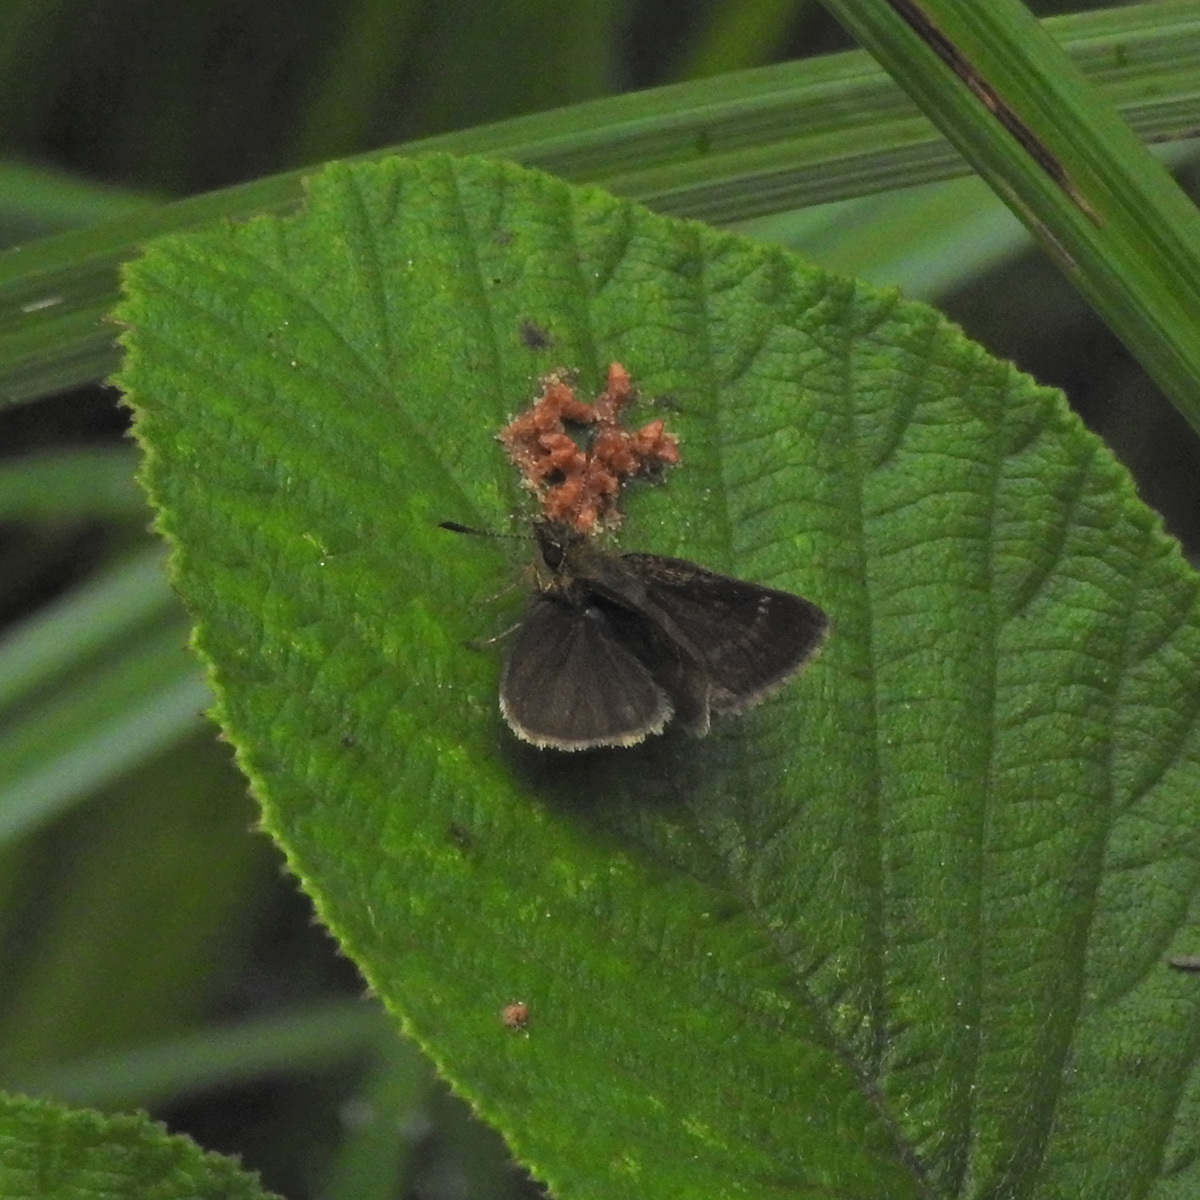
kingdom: Animalia
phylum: Arthropoda
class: Insecta
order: Lepidoptera
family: Hesperiidae
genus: Aeromachus
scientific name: Aeromachus pygmaeus
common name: Pygmy scrub hopper
